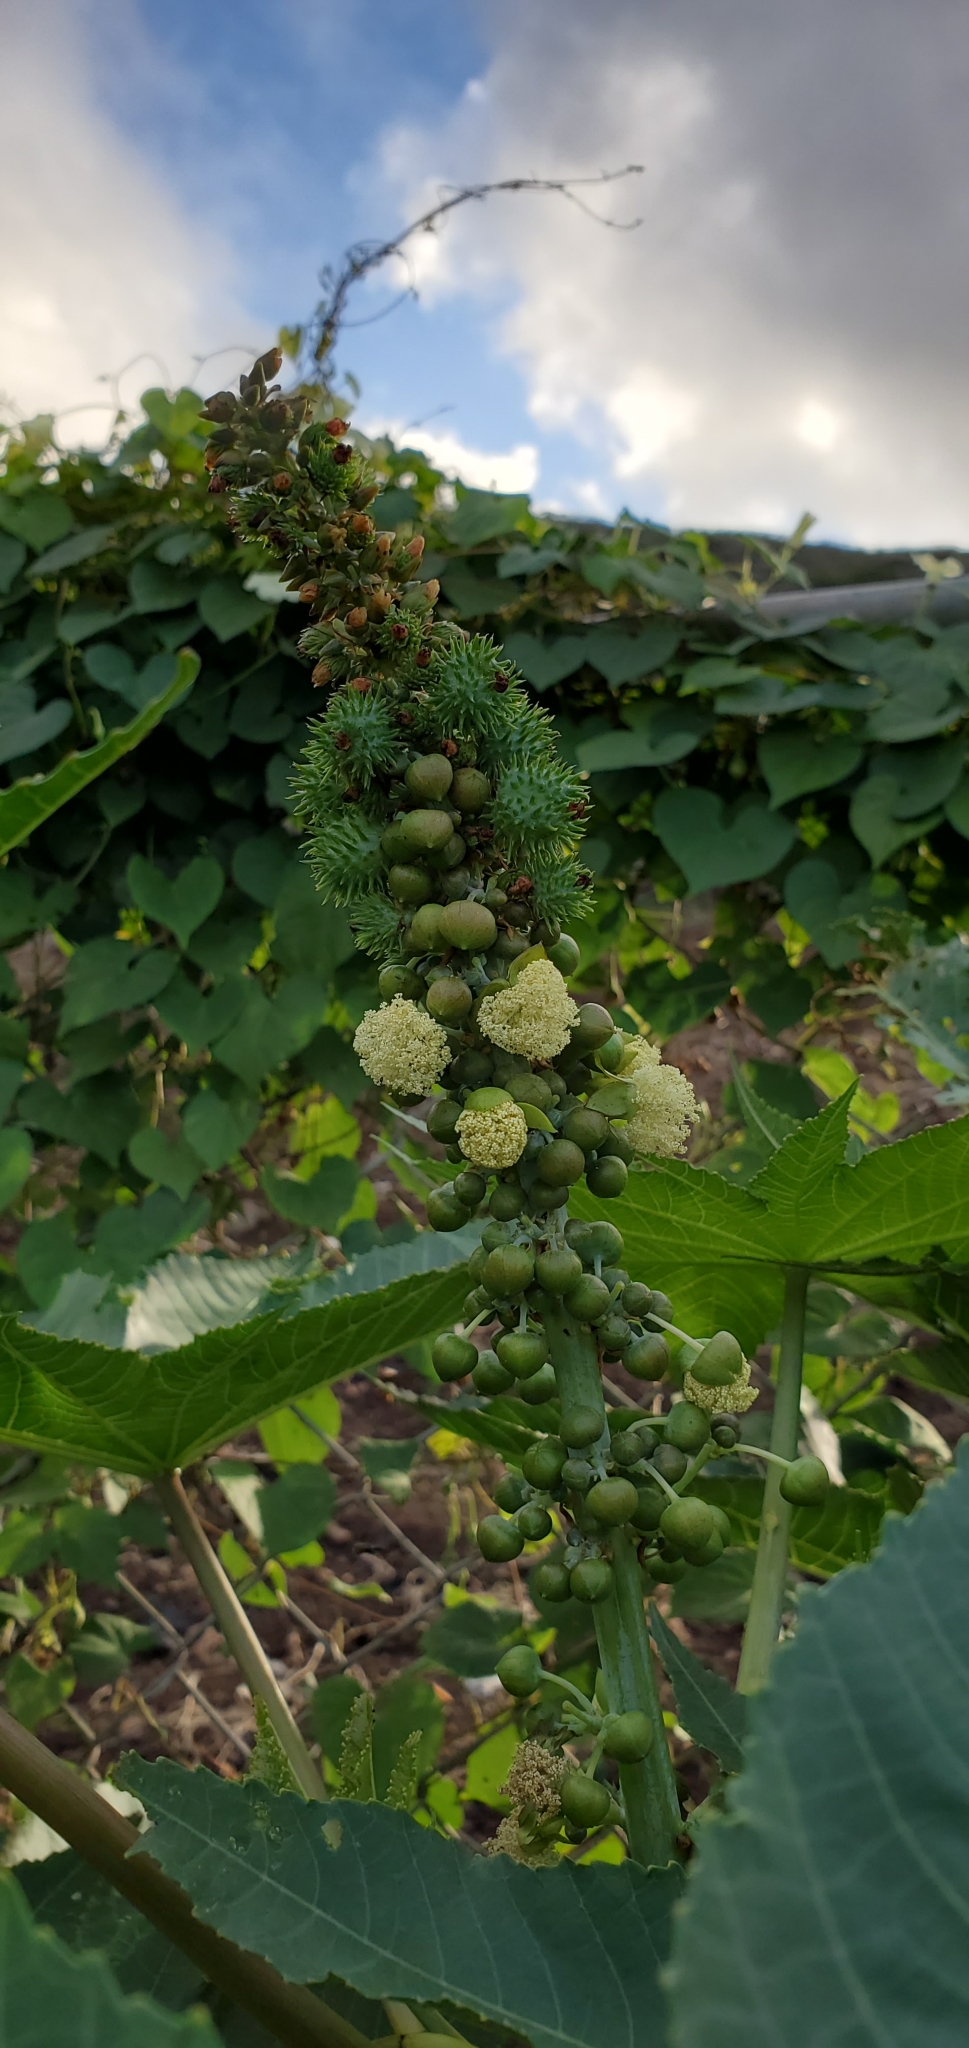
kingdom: Plantae
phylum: Tracheophyta
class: Magnoliopsida
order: Malpighiales
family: Euphorbiaceae
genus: Ricinus
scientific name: Ricinus communis
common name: Castor-oil-plant
